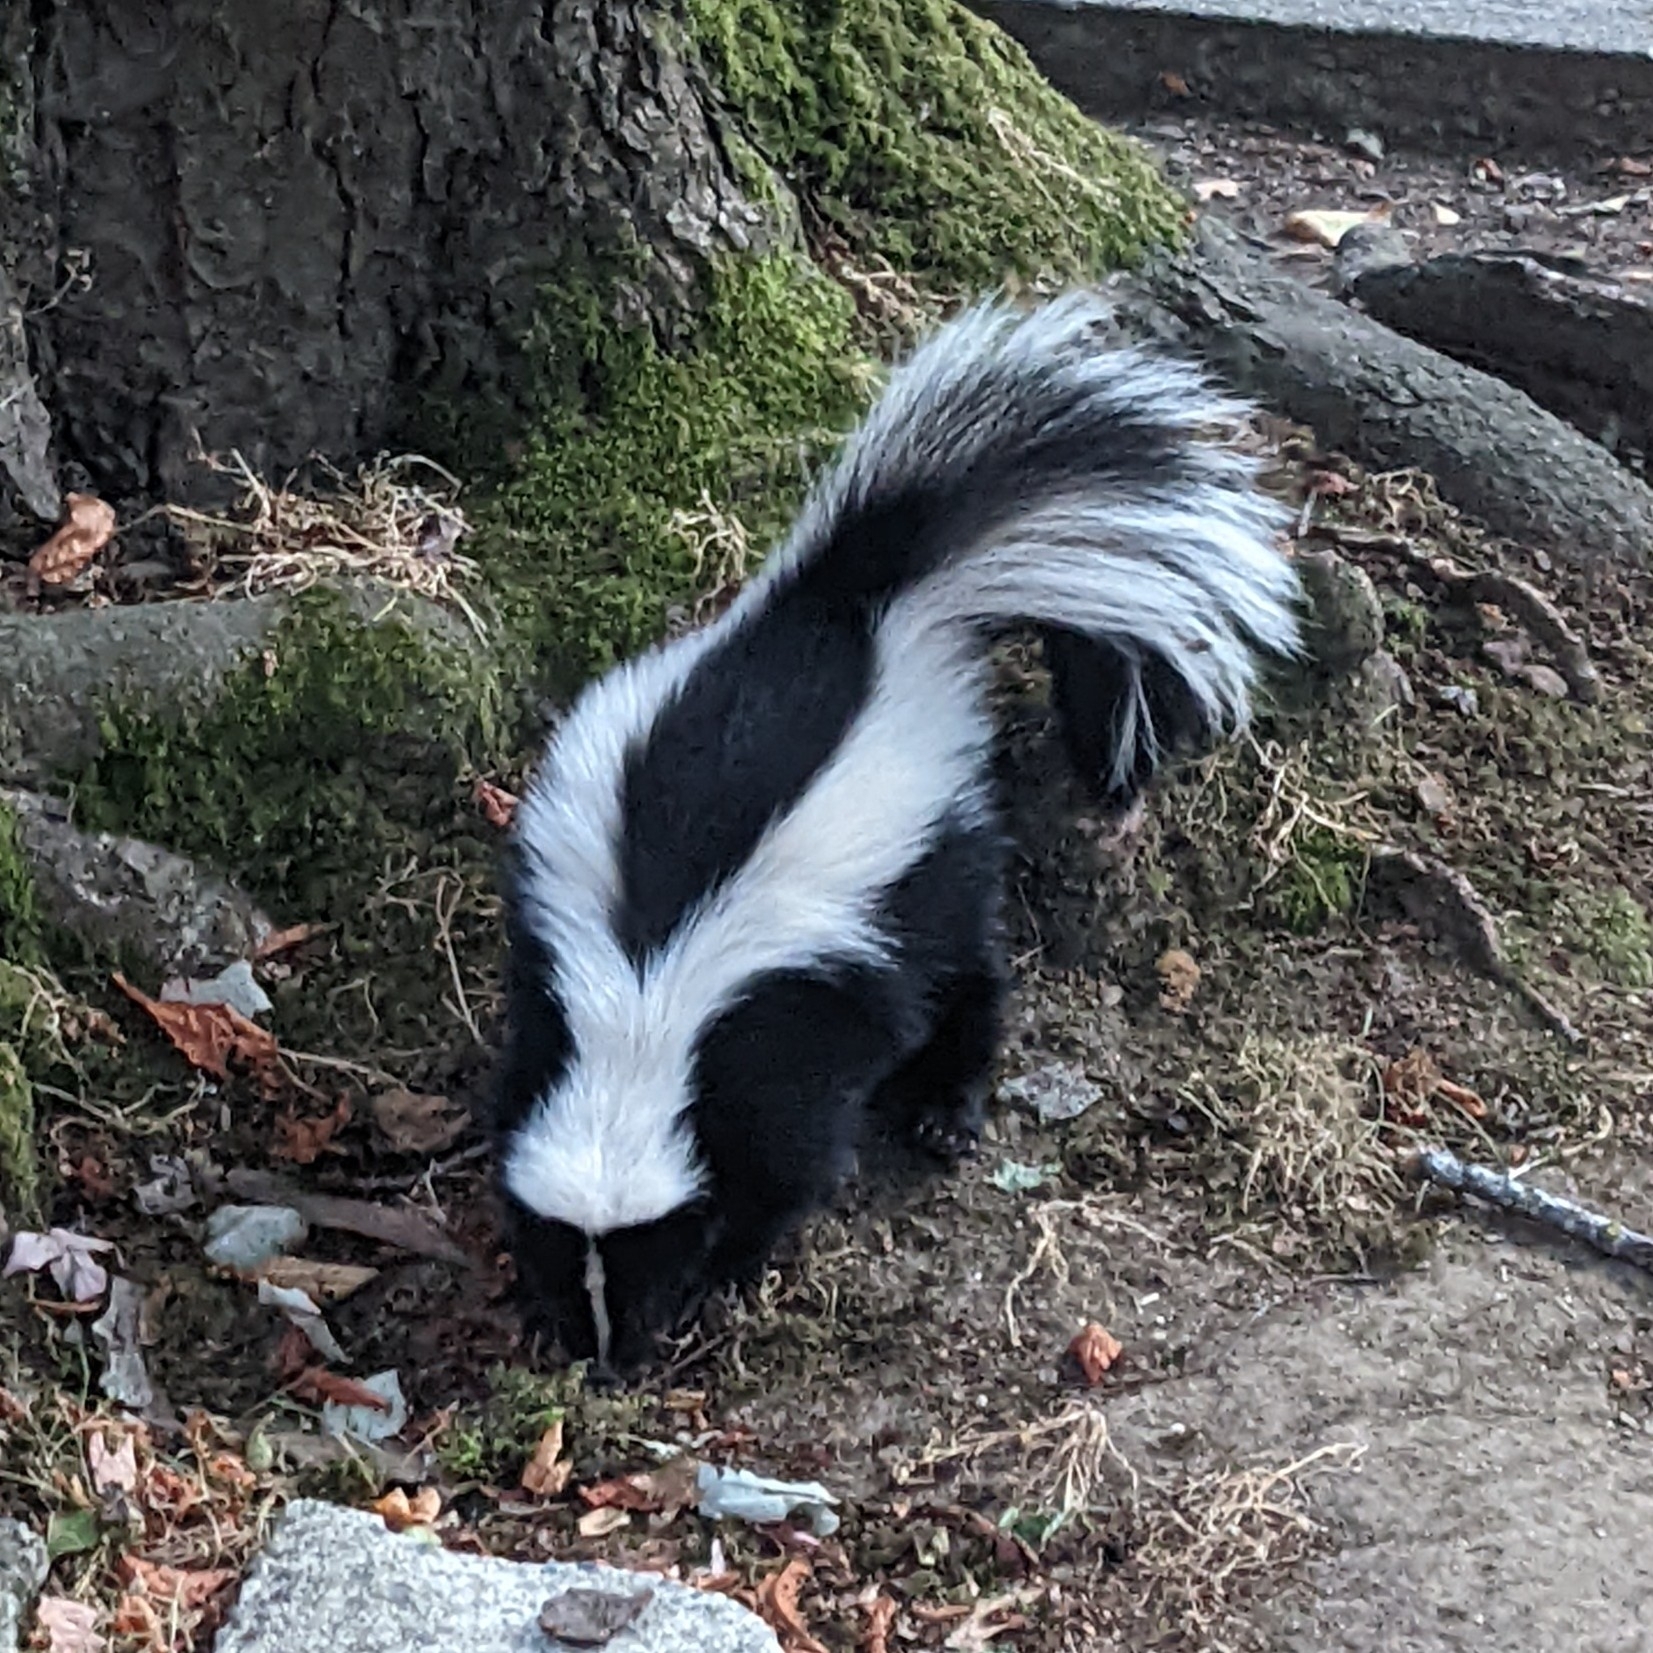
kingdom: Animalia
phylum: Chordata
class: Mammalia
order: Carnivora
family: Mephitidae
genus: Mephitis
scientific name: Mephitis mephitis
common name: Striped skunk
